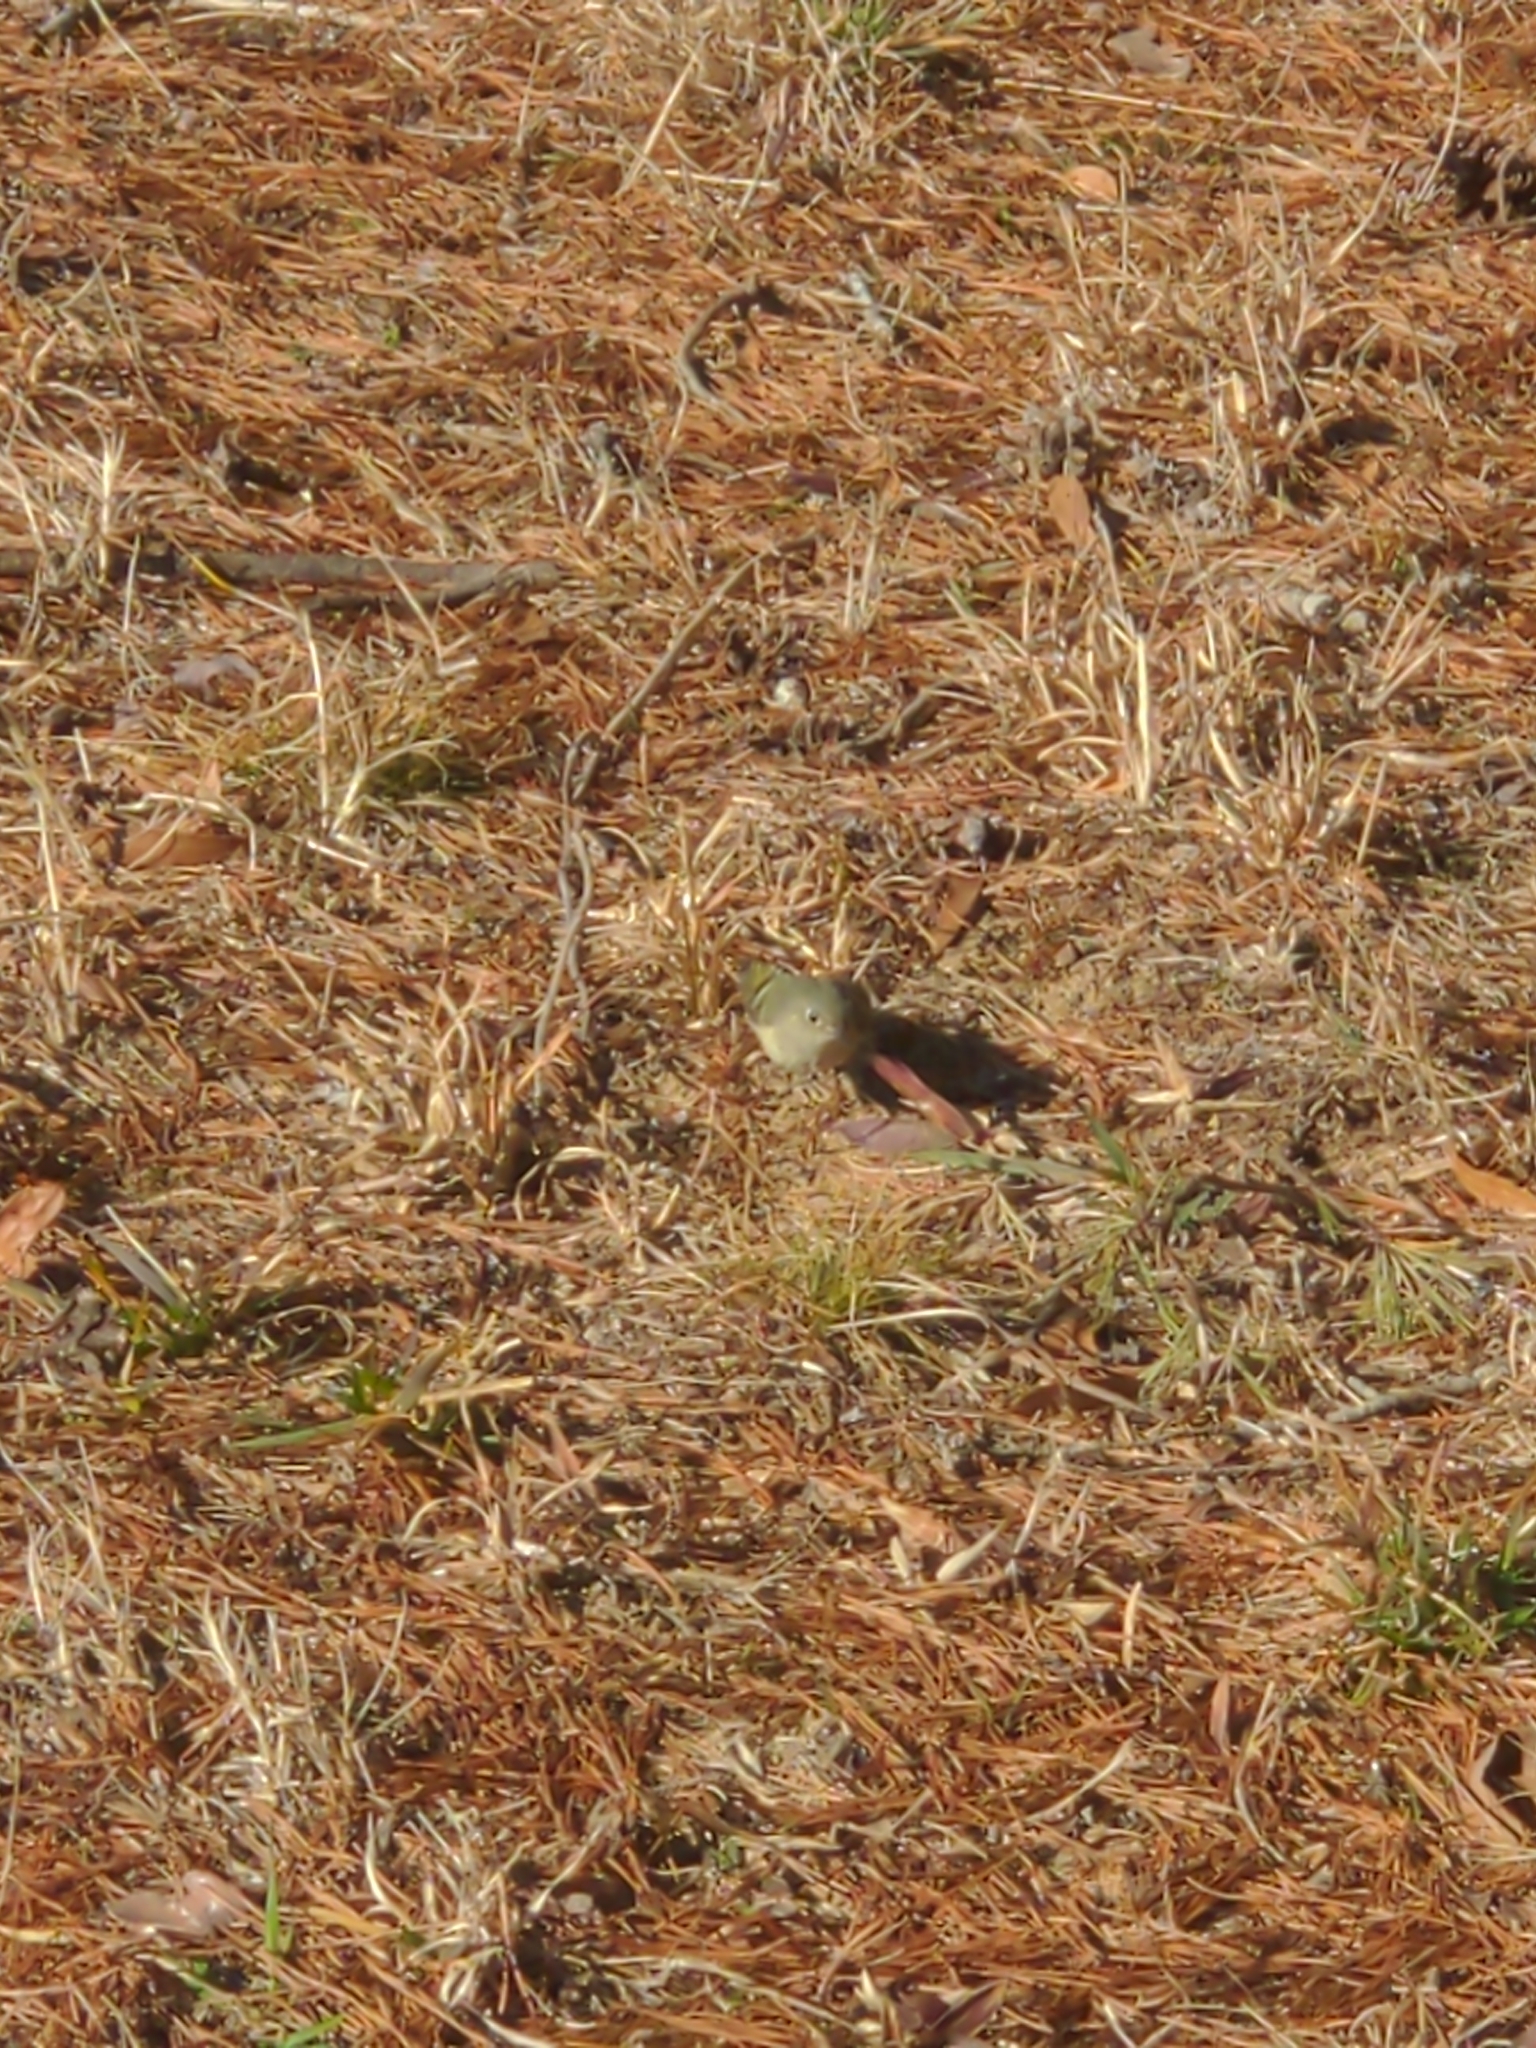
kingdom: Animalia
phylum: Chordata
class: Aves
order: Passeriformes
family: Regulidae
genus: Regulus
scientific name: Regulus calendula
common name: Ruby-crowned kinglet
